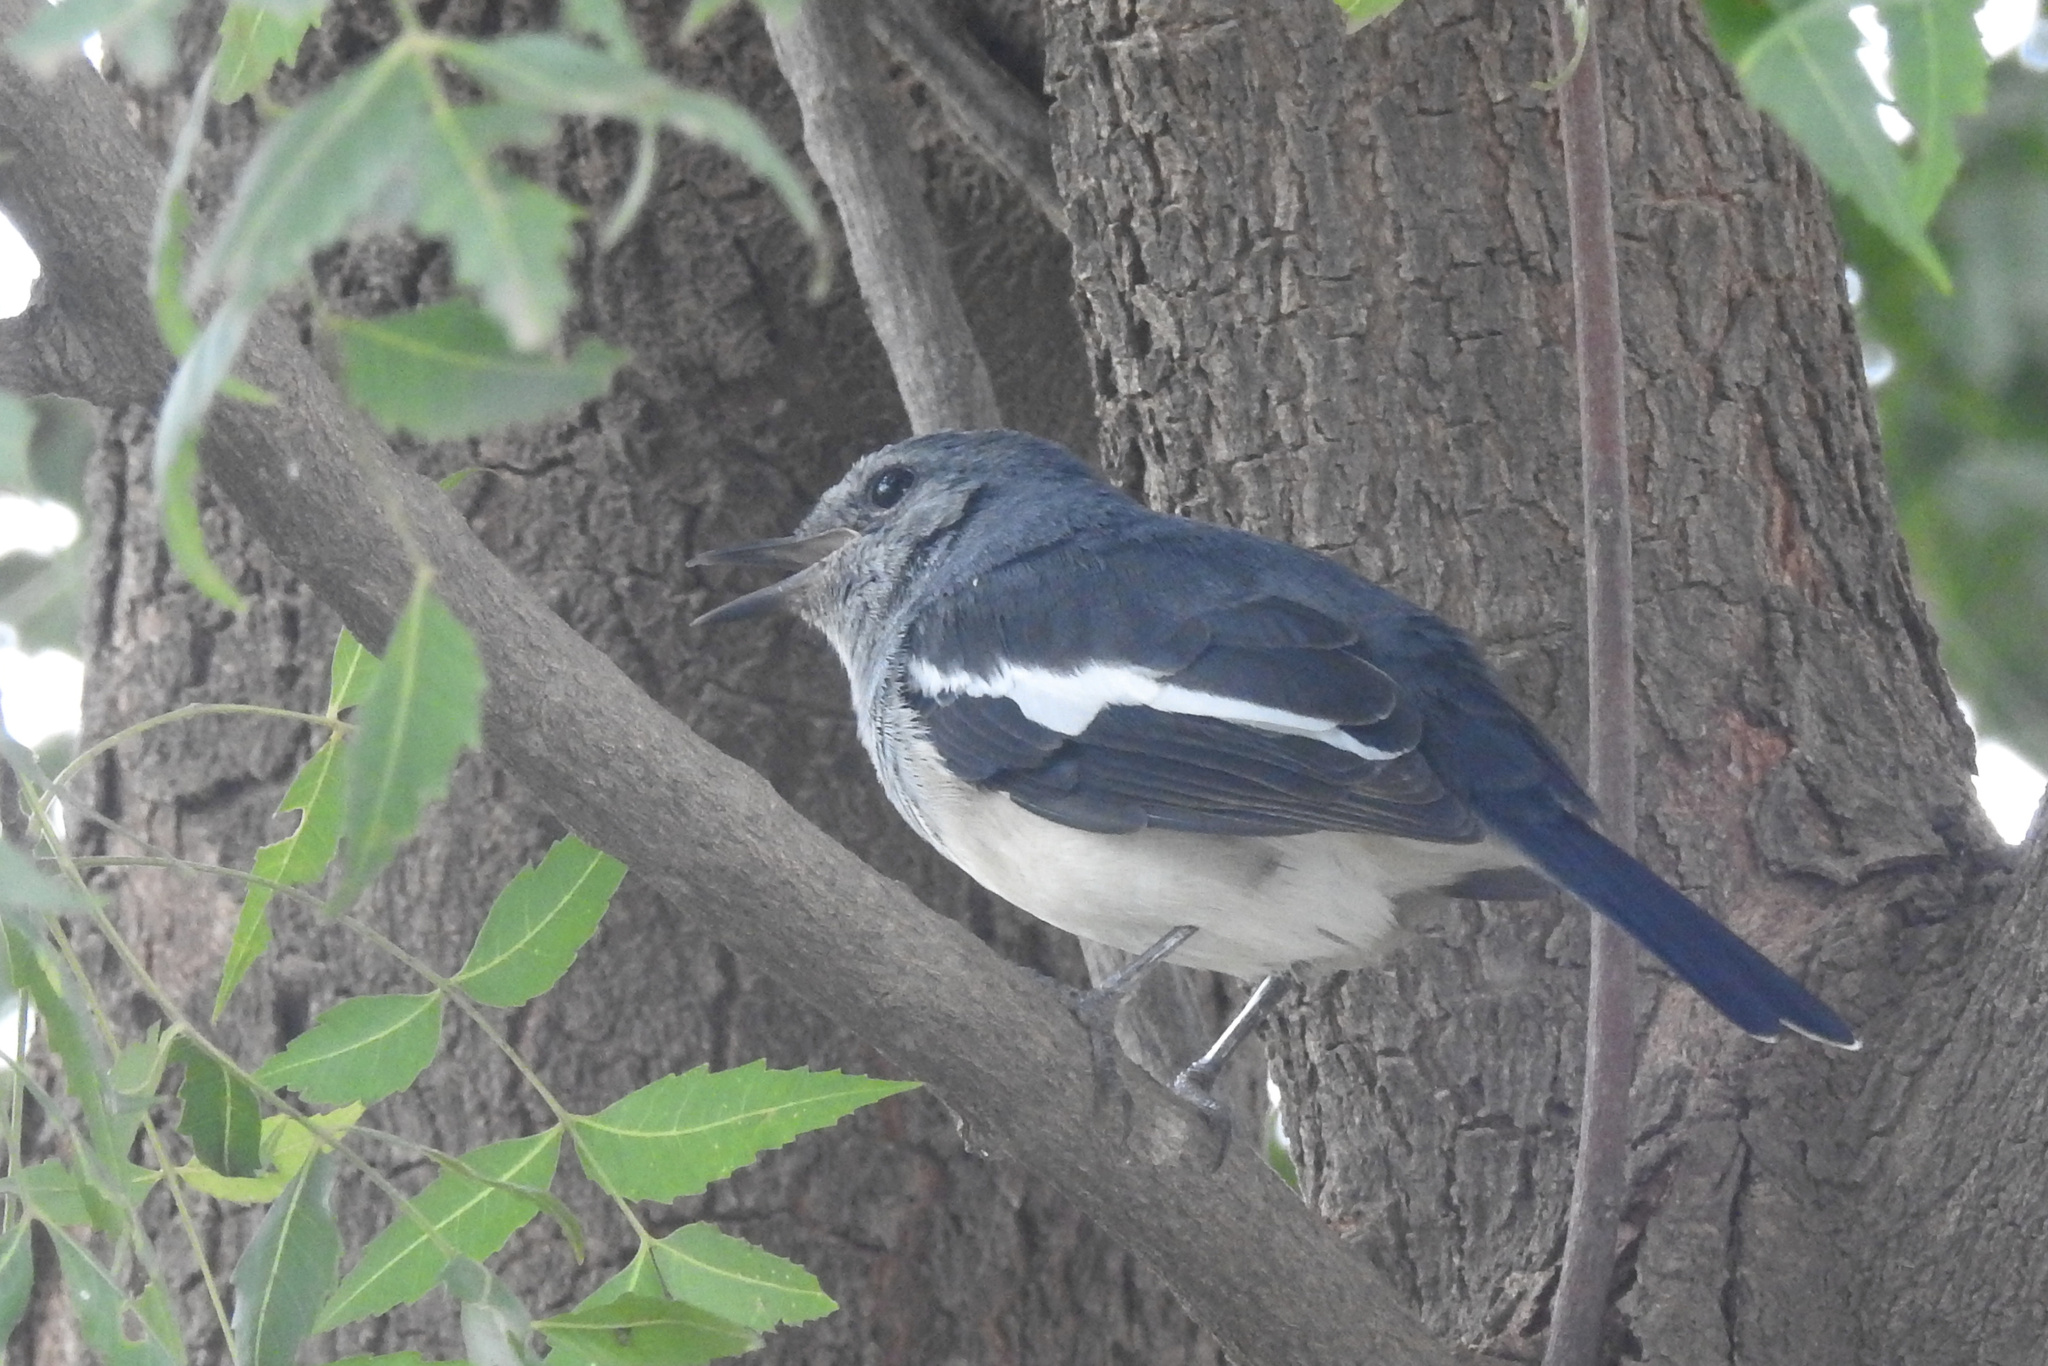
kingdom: Animalia
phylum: Chordata
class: Aves
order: Passeriformes
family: Muscicapidae
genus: Copsychus
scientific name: Copsychus saularis
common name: Oriental magpie-robin
